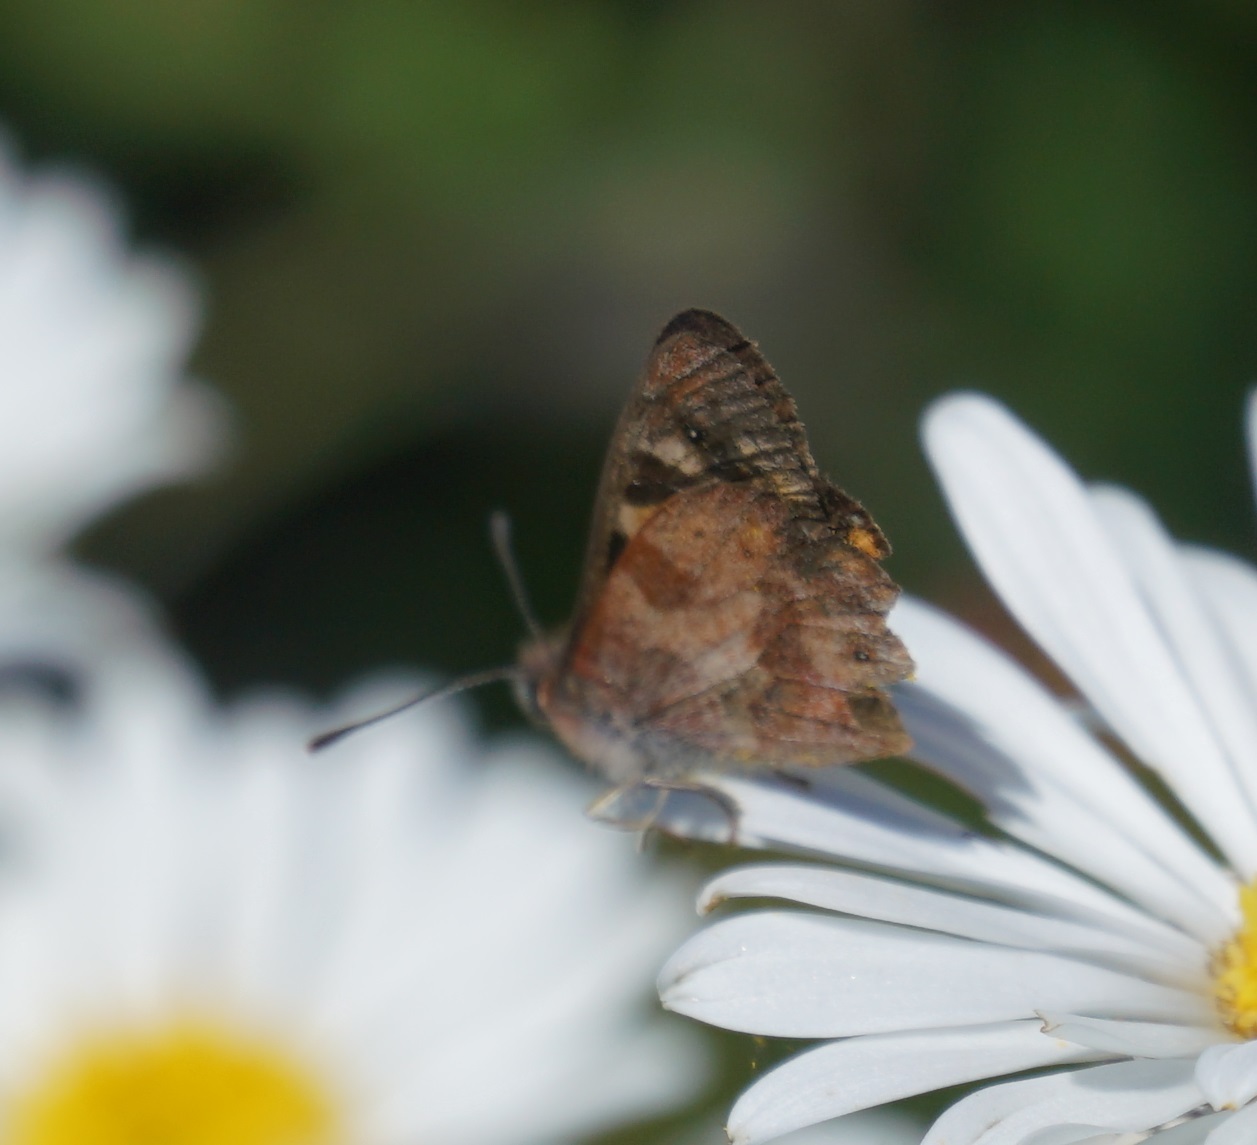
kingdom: Animalia
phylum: Arthropoda
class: Insecta
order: Lepidoptera
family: Nymphalidae
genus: Argynnina
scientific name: Argynnina cyrila
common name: Cyril's brown
